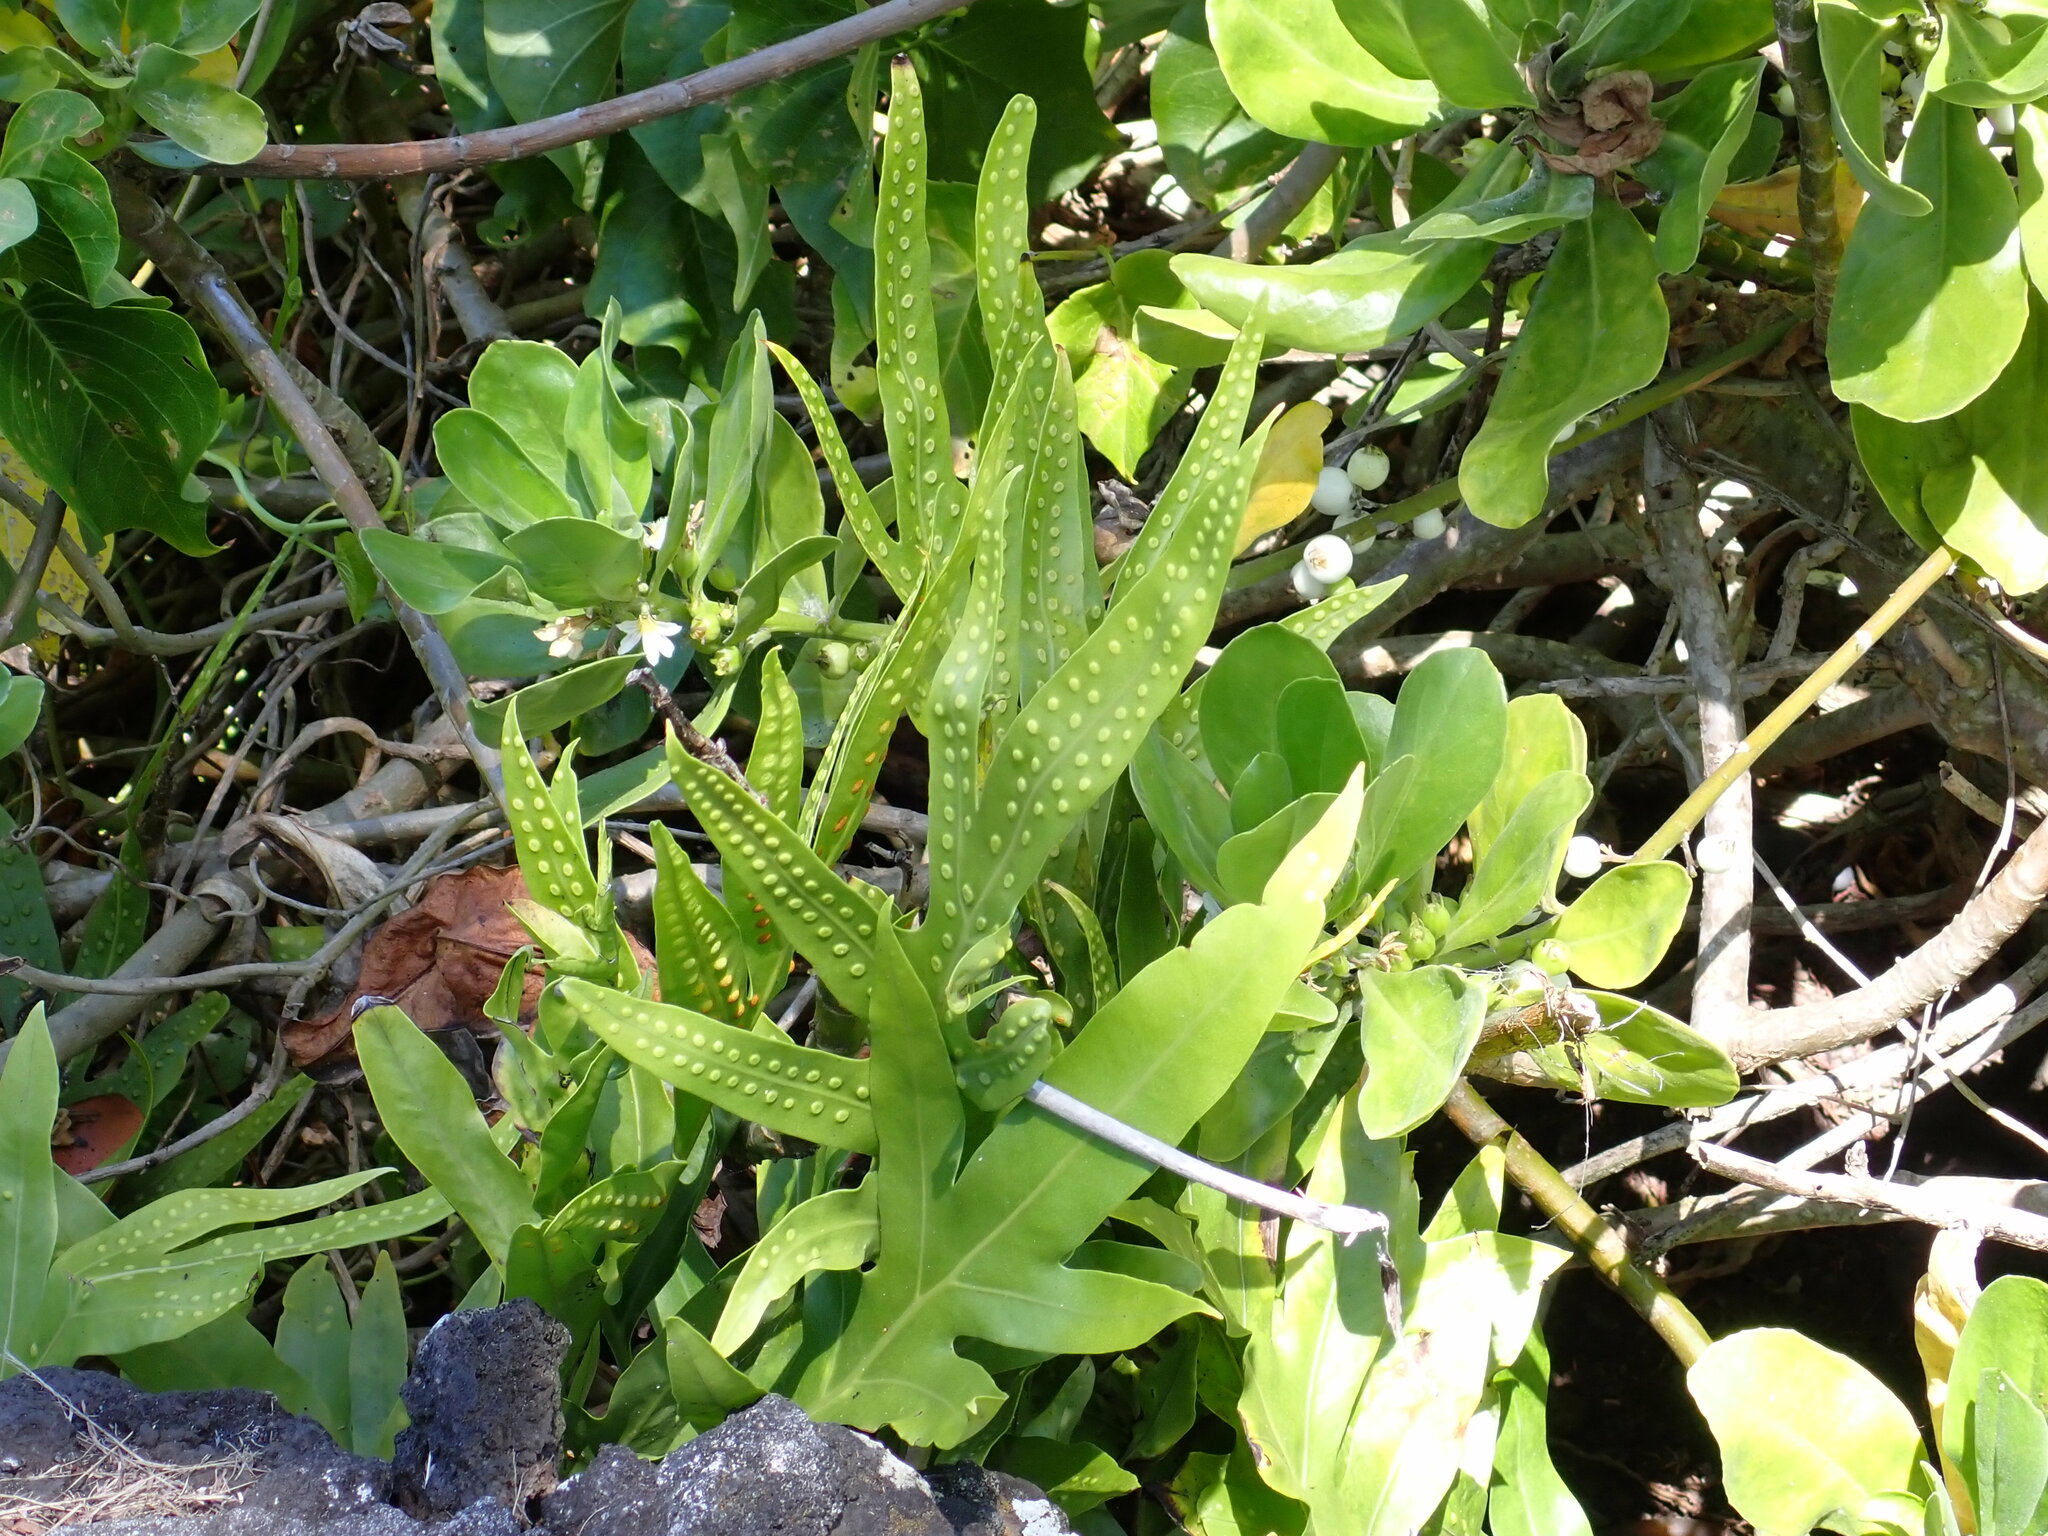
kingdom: Plantae
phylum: Tracheophyta
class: Polypodiopsida
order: Polypodiales
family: Polypodiaceae
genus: Microsorum
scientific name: Microsorum grossum
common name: Musk fern
